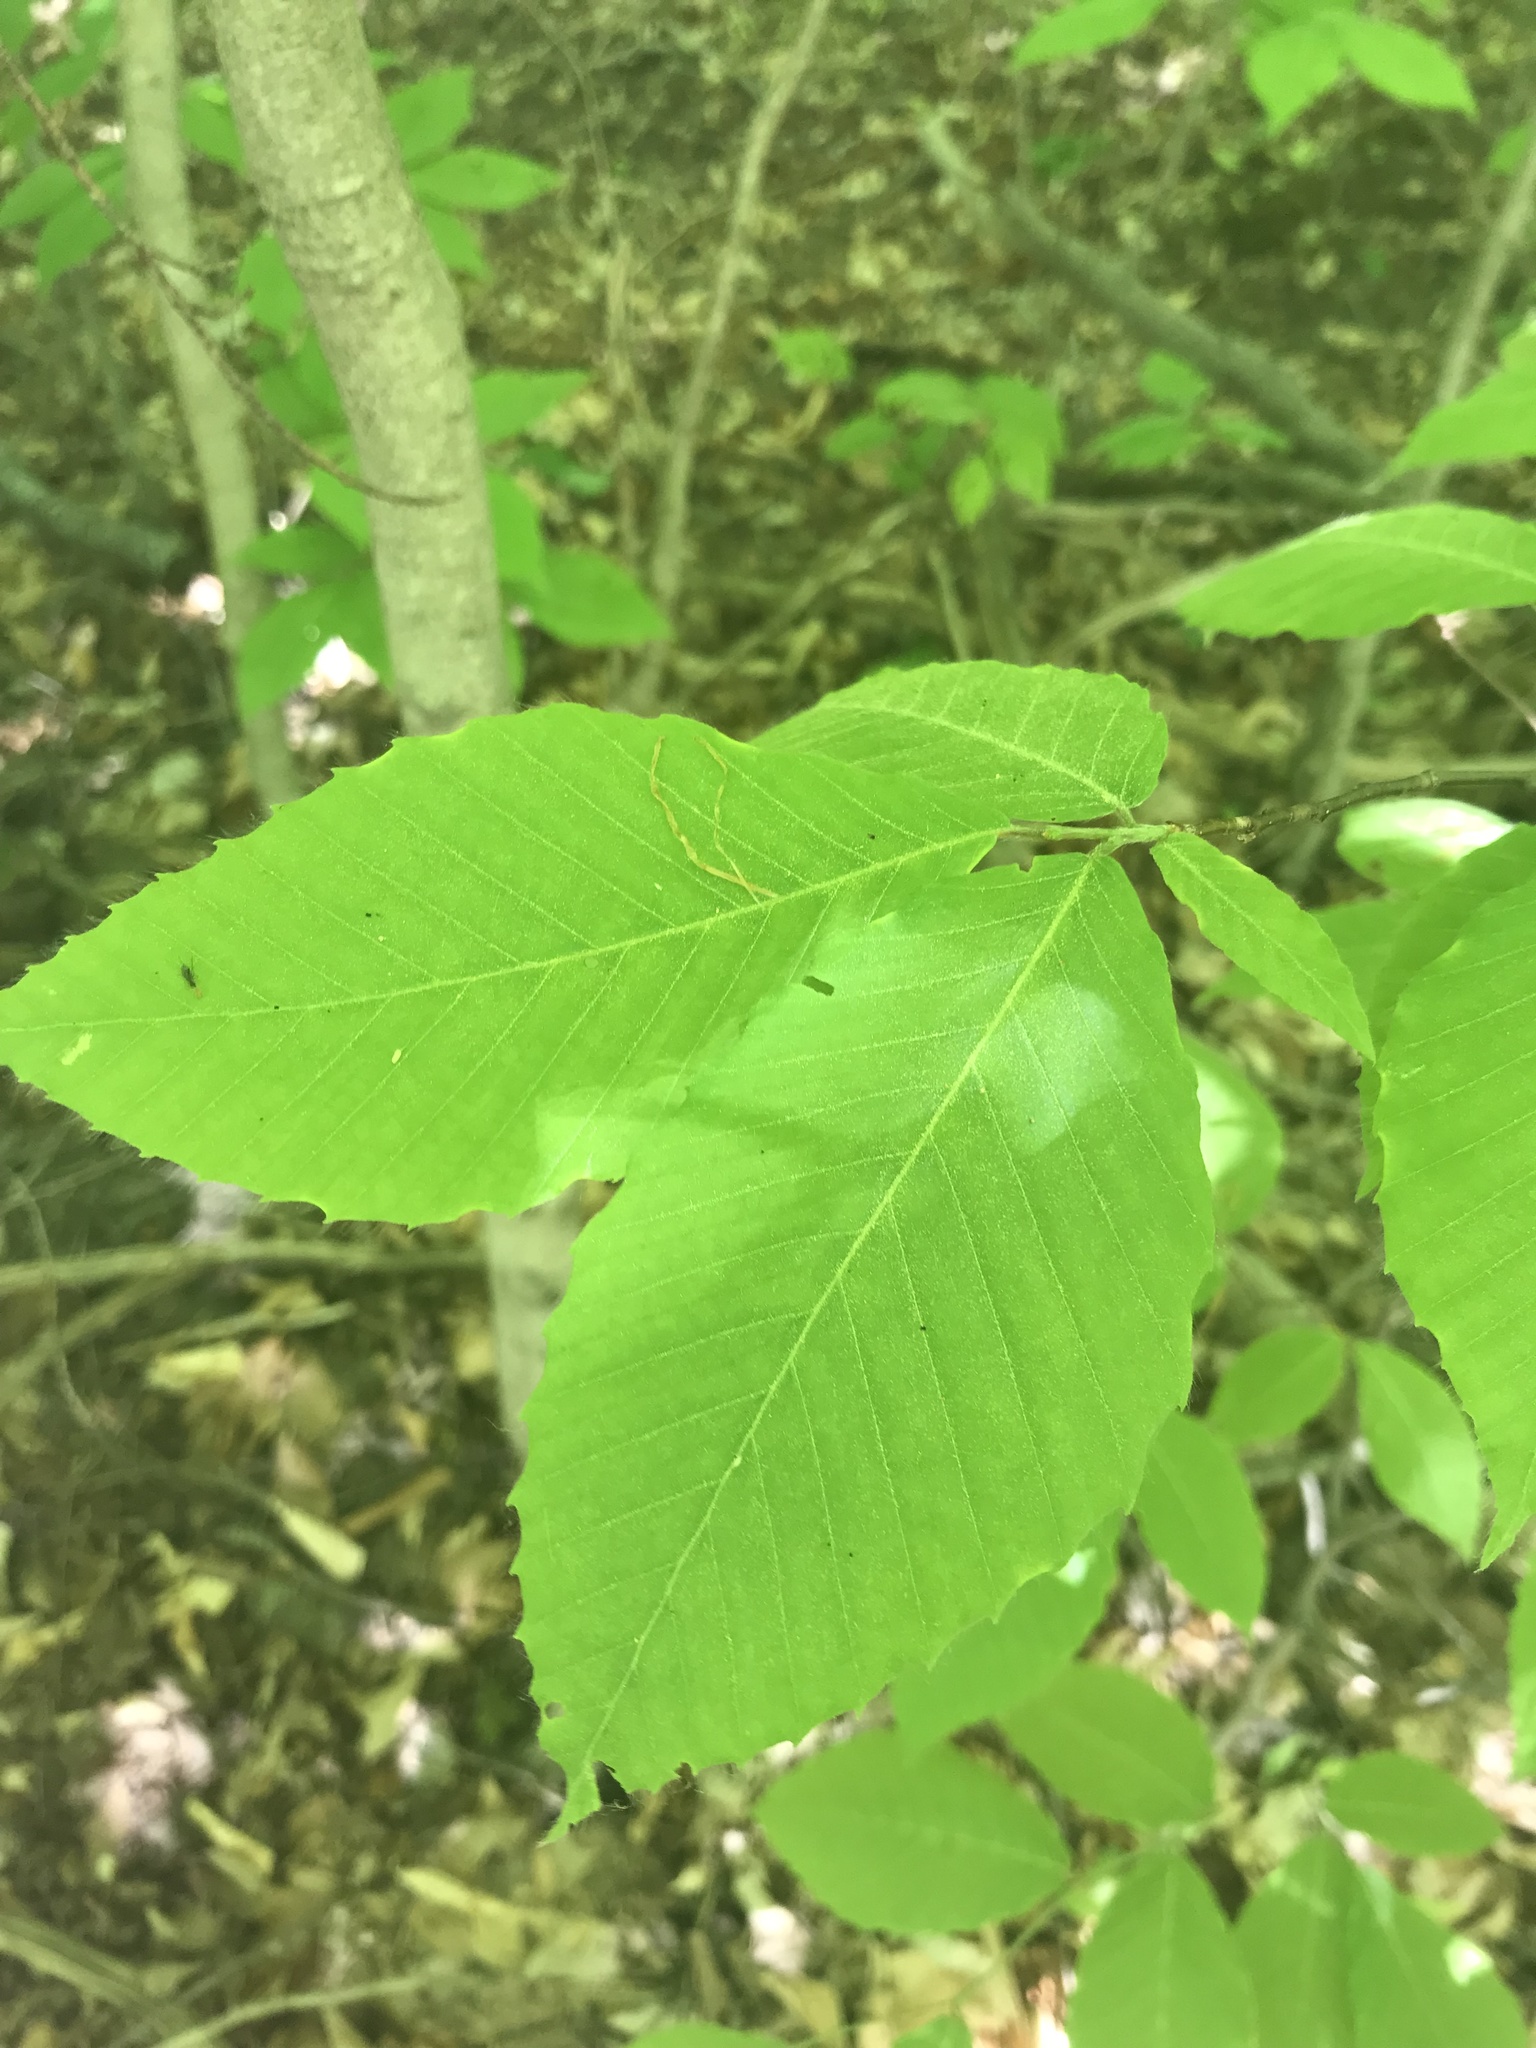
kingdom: Plantae
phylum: Tracheophyta
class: Magnoliopsida
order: Fagales
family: Fagaceae
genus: Fagus
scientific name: Fagus grandifolia
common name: American beech
